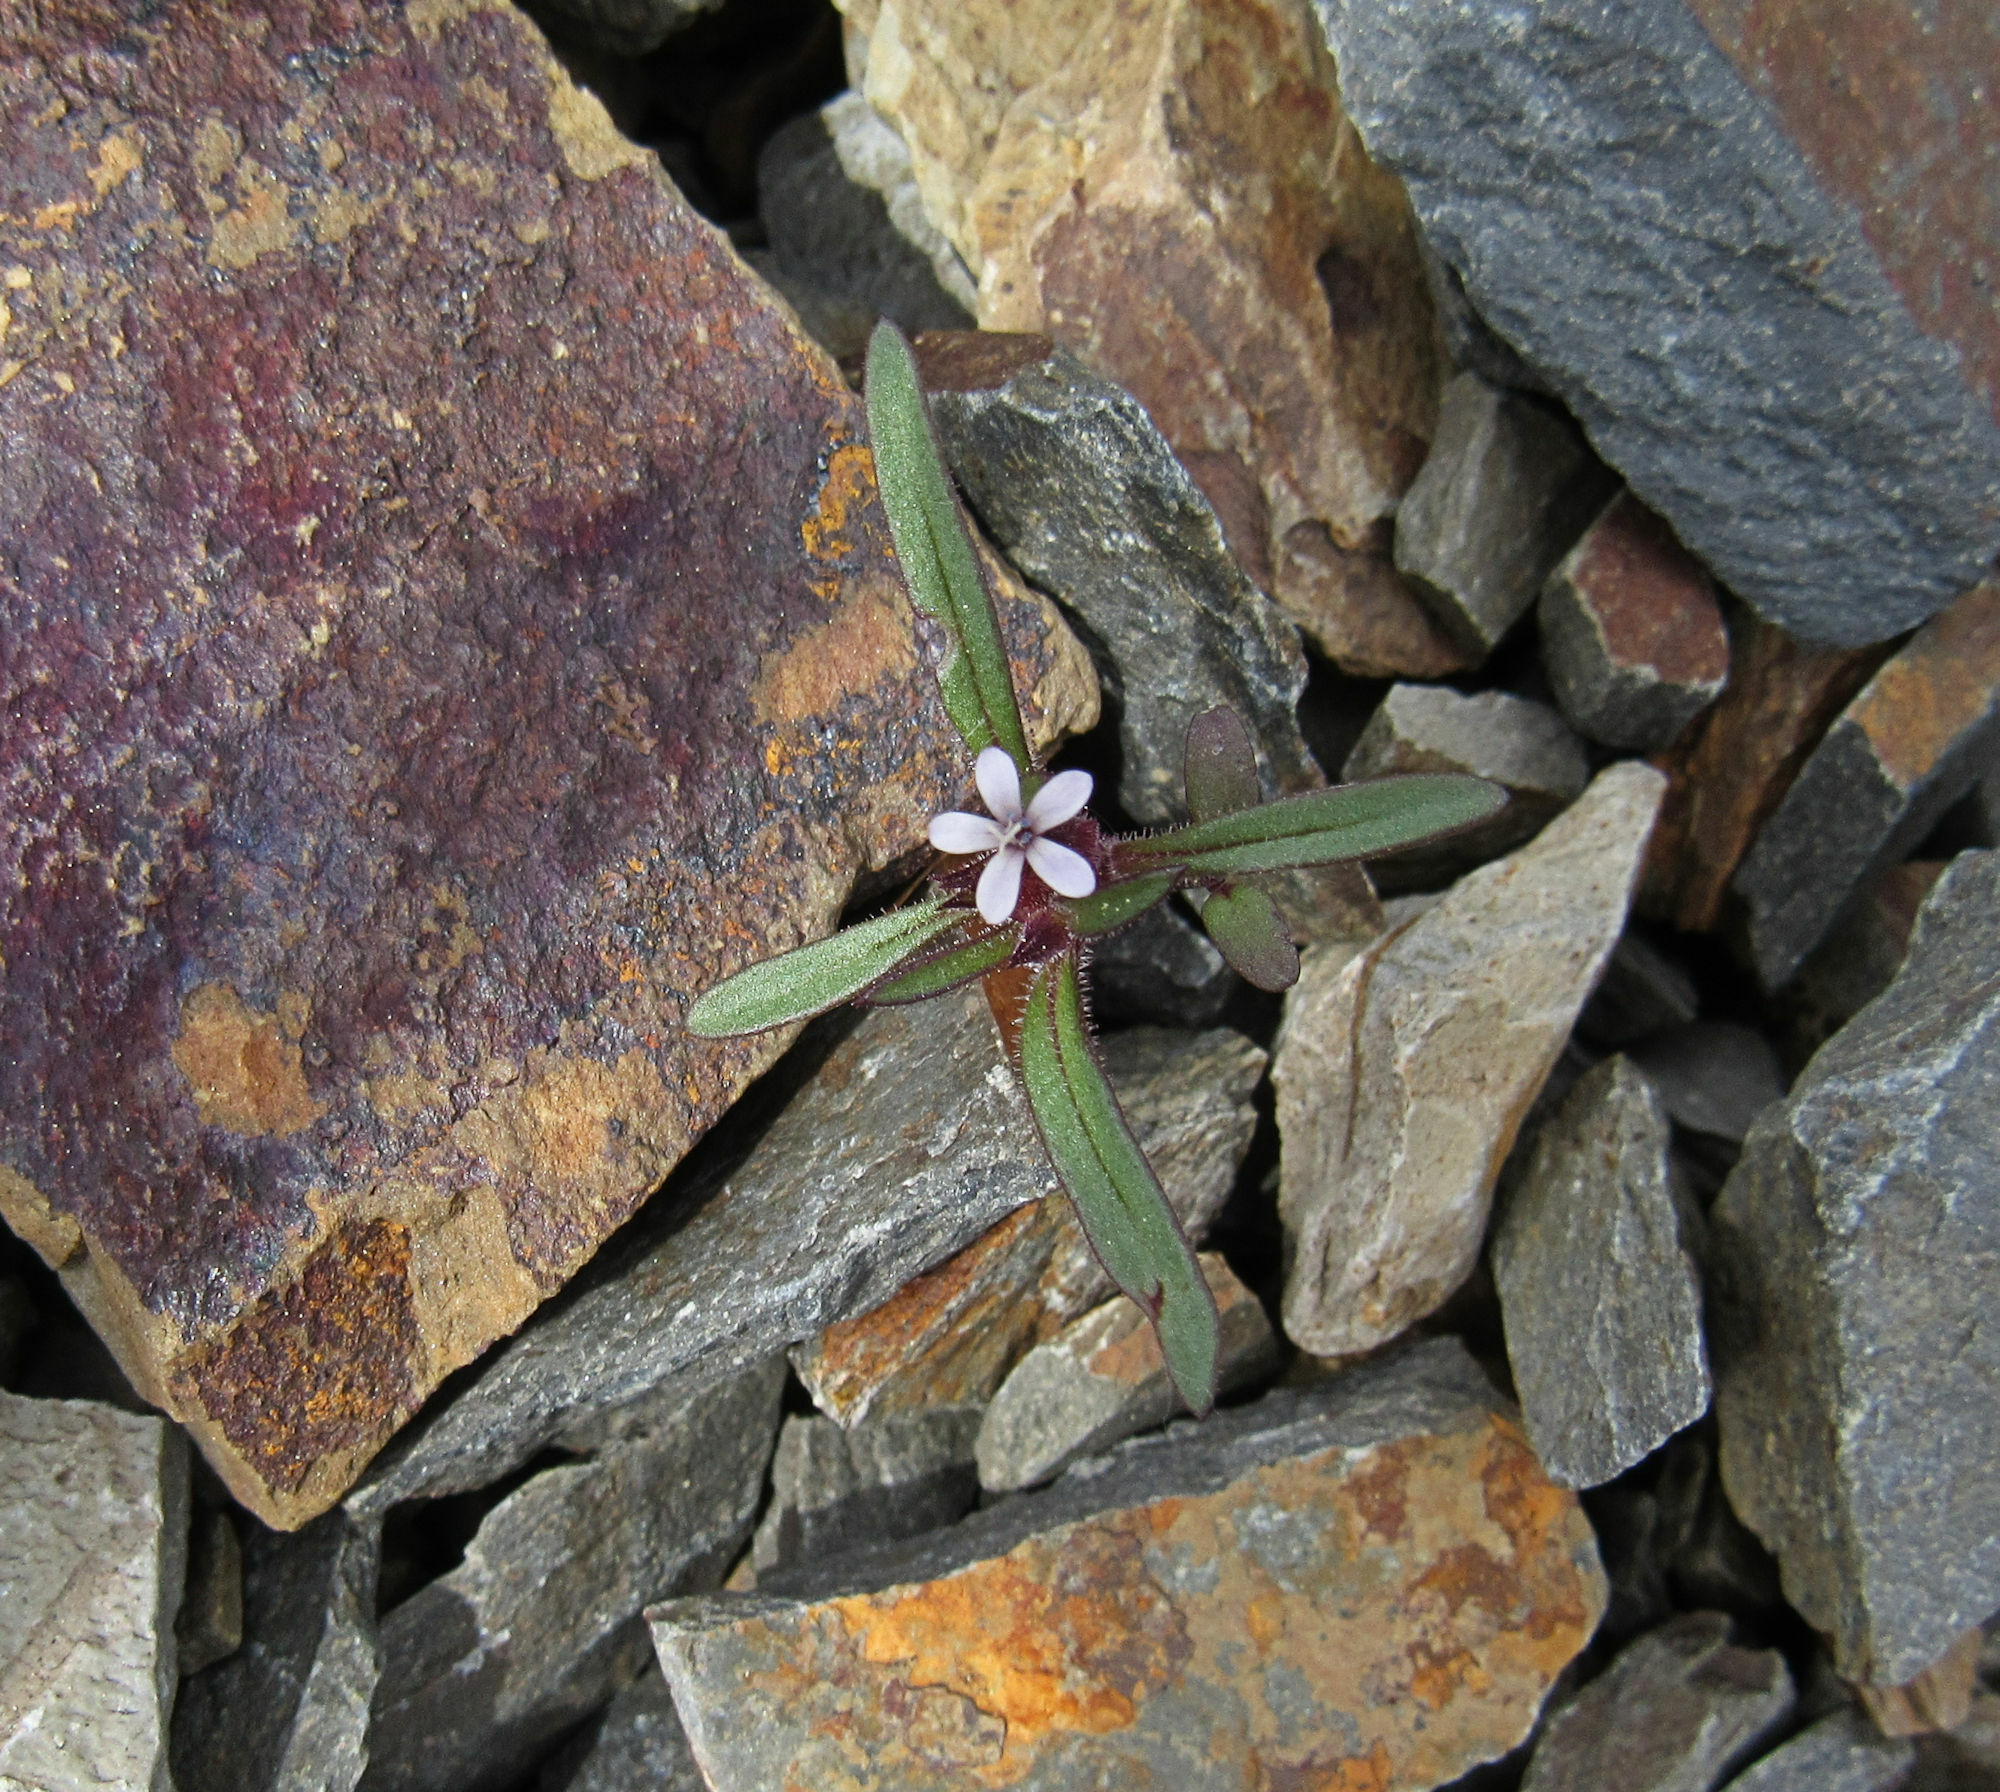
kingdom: Plantae
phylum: Tracheophyta
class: Magnoliopsida
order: Ericales
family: Polemoniaceae
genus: Collomia
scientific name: Collomia tinctoria
